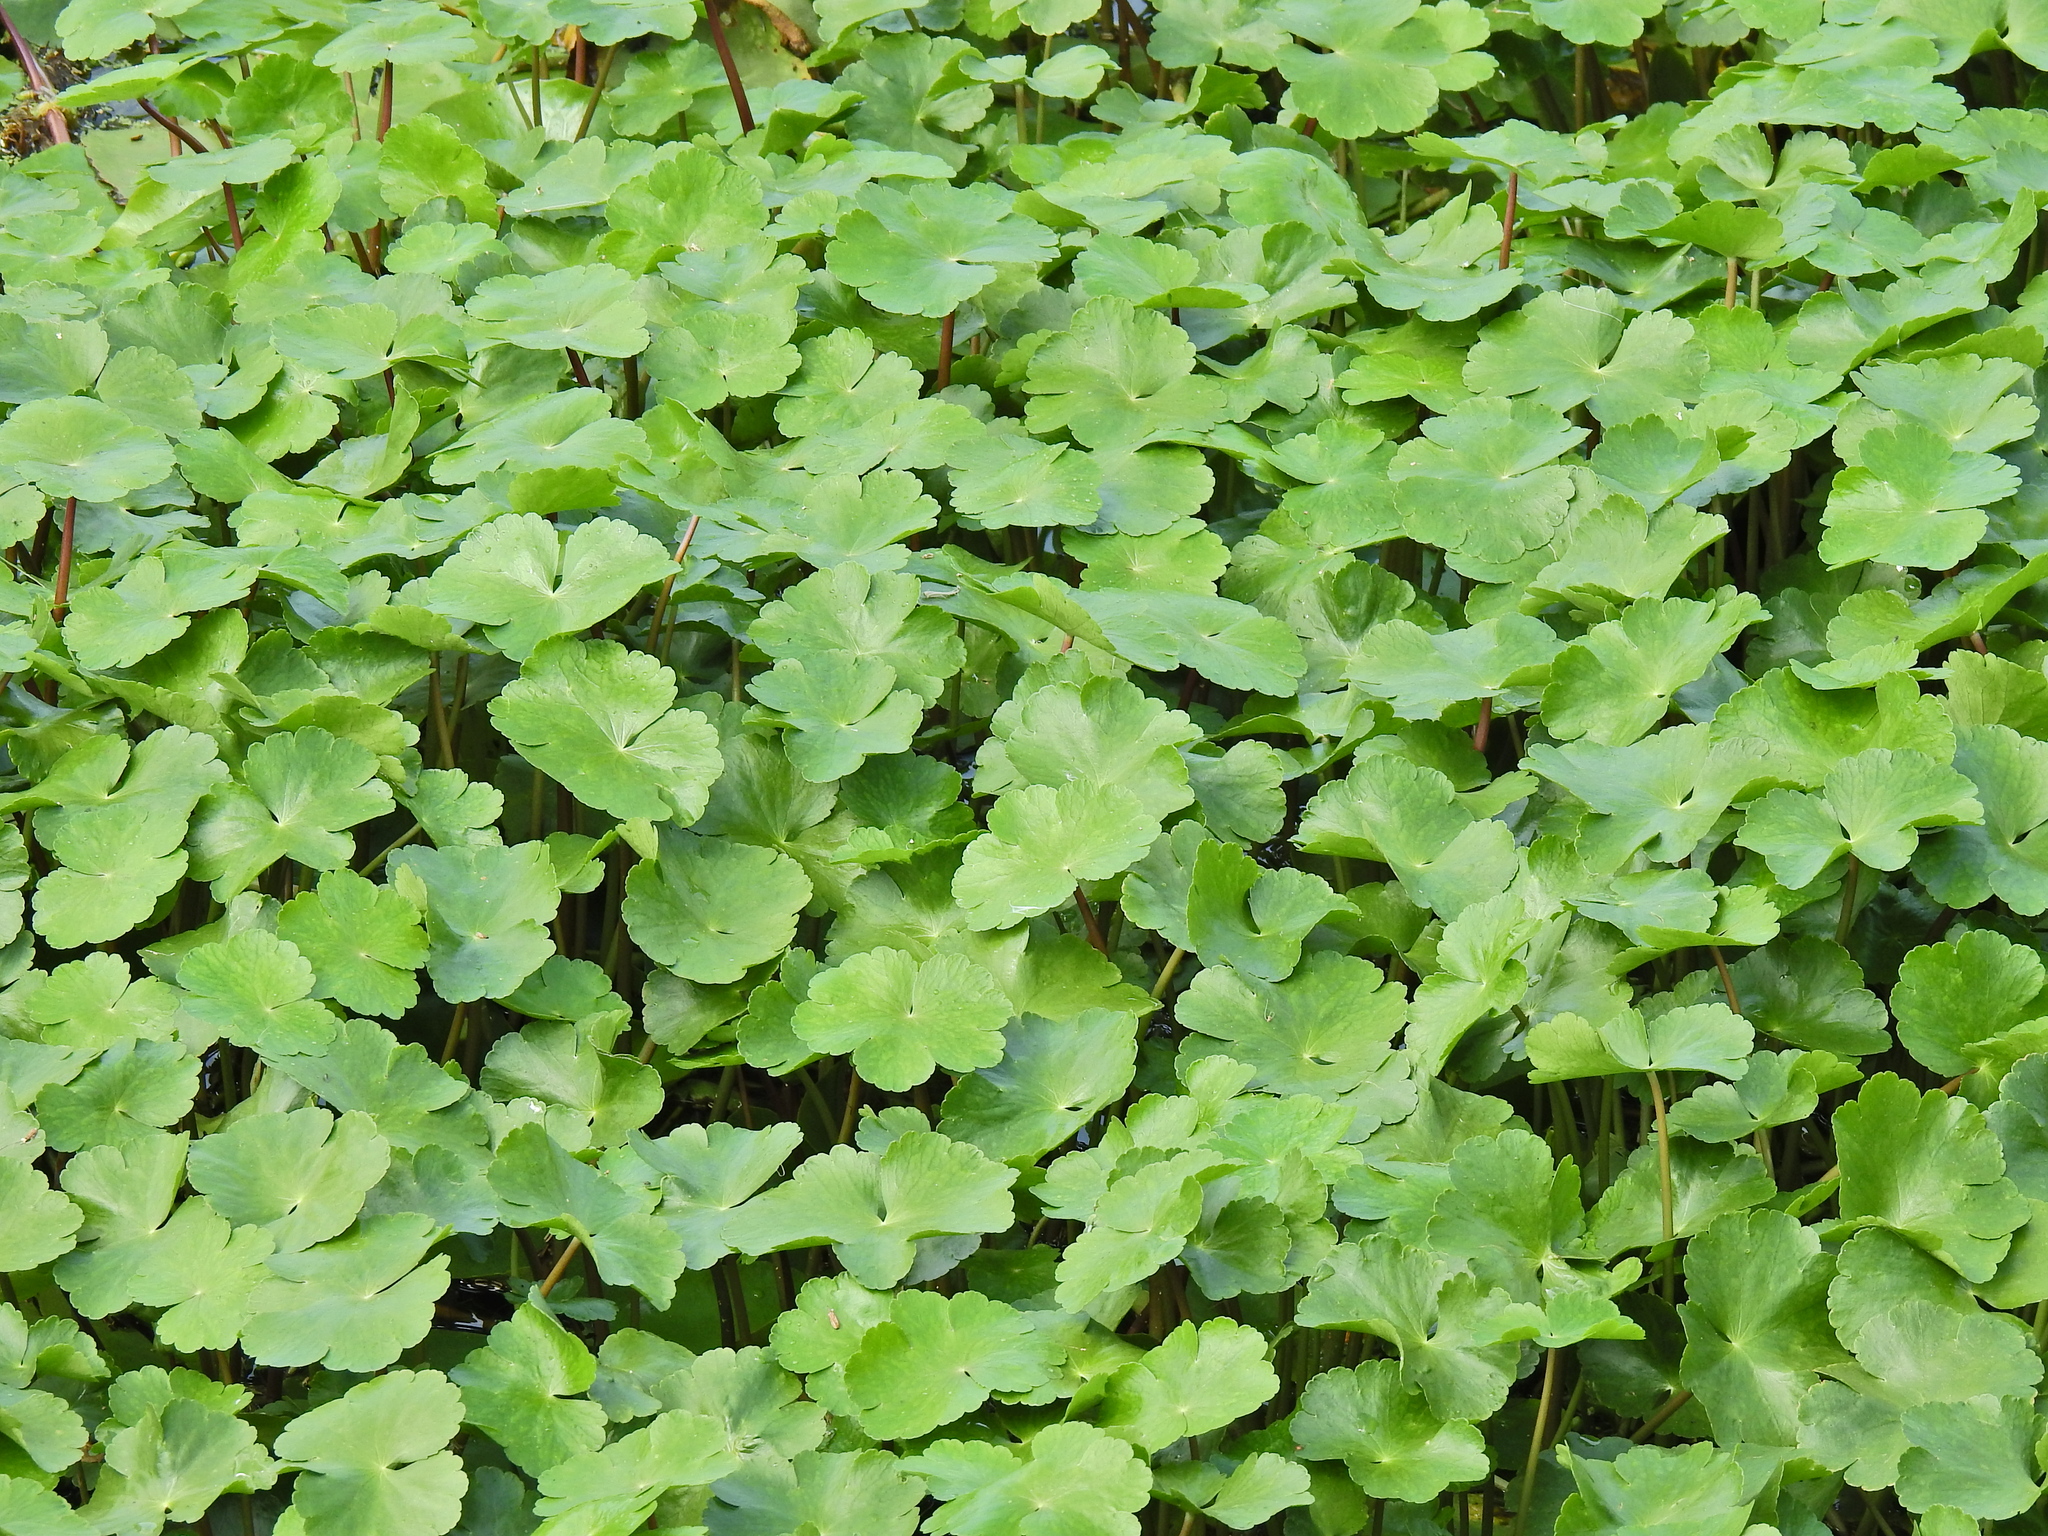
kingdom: Plantae
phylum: Tracheophyta
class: Magnoliopsida
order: Apiales
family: Araliaceae
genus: Hydrocotyle
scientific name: Hydrocotyle ranunculoides
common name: Floating pennywort
